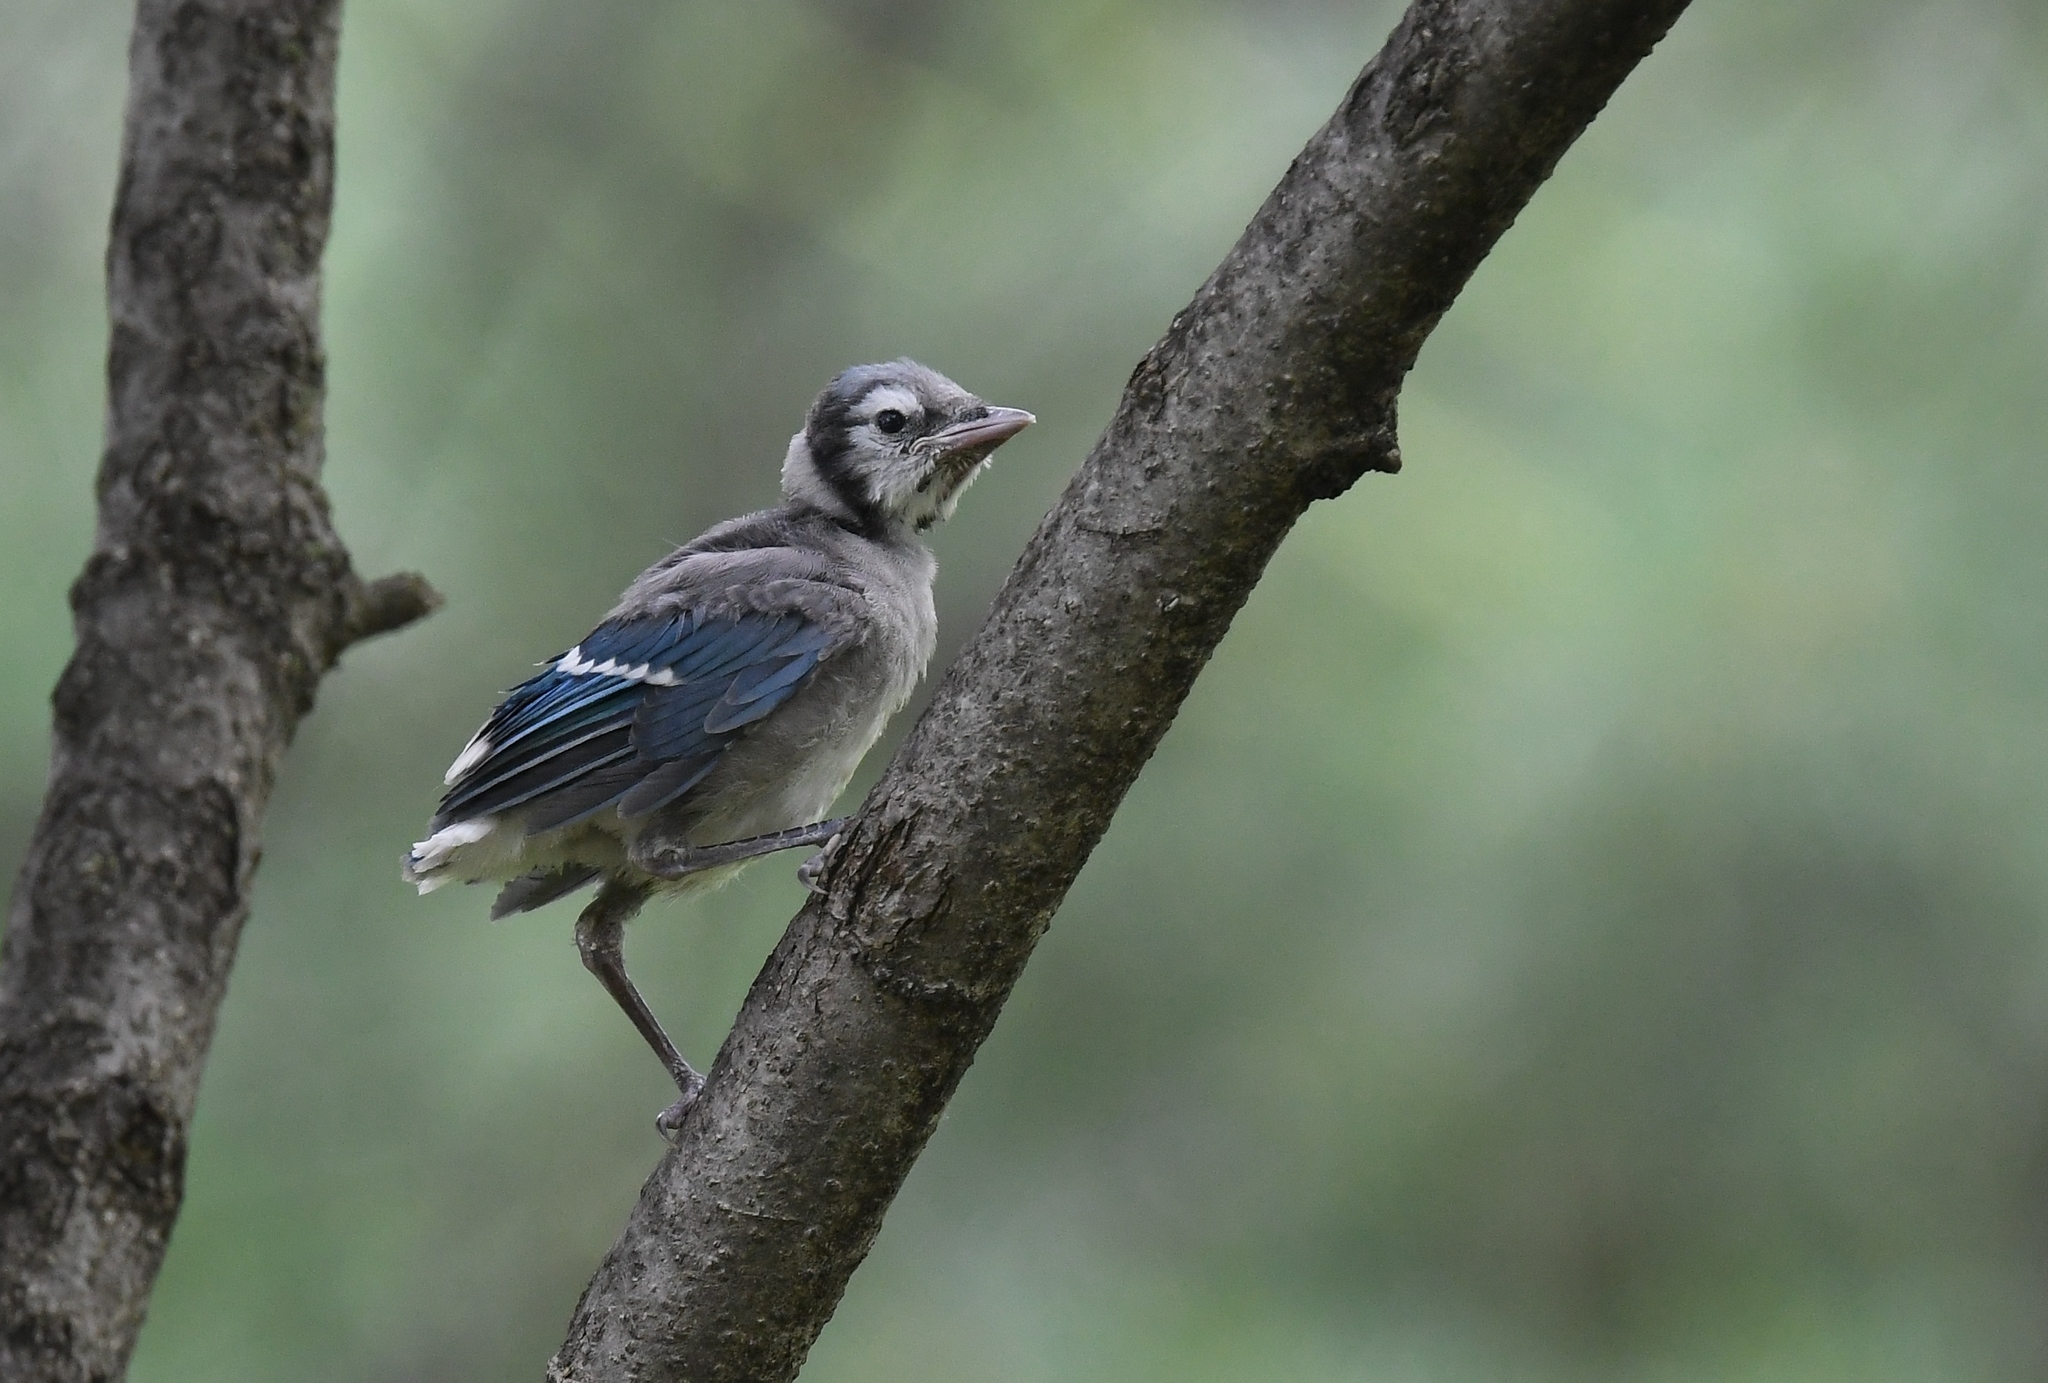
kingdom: Animalia
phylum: Chordata
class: Aves
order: Passeriformes
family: Corvidae
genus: Cyanocitta
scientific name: Cyanocitta cristata
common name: Blue jay
